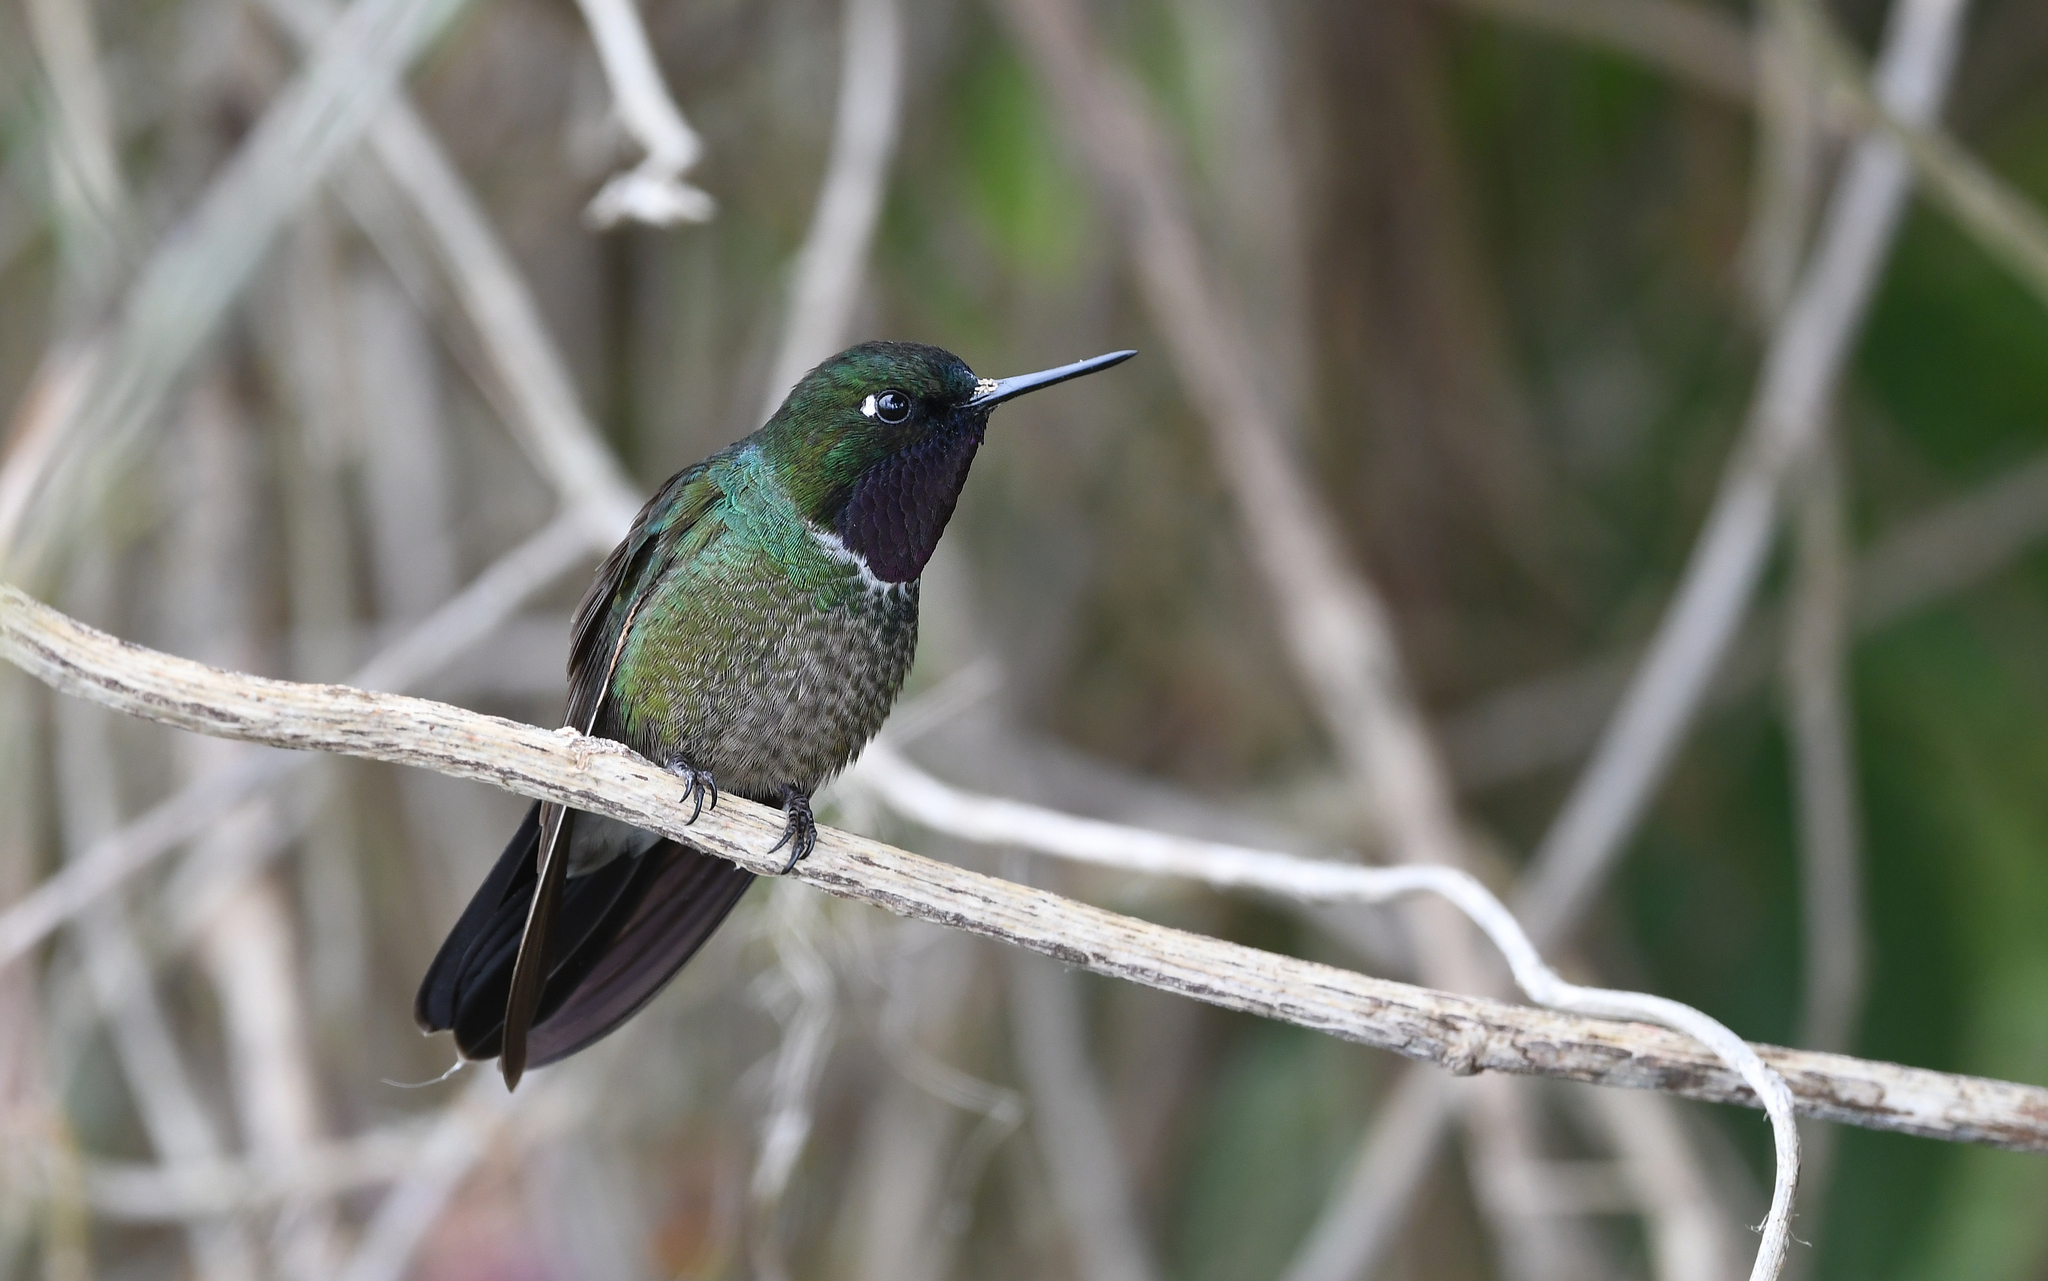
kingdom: Animalia
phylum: Chordata
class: Aves
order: Apodiformes
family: Trochilidae
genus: Heliangelus
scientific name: Heliangelus clarisse
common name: Longuemare's sunangel
